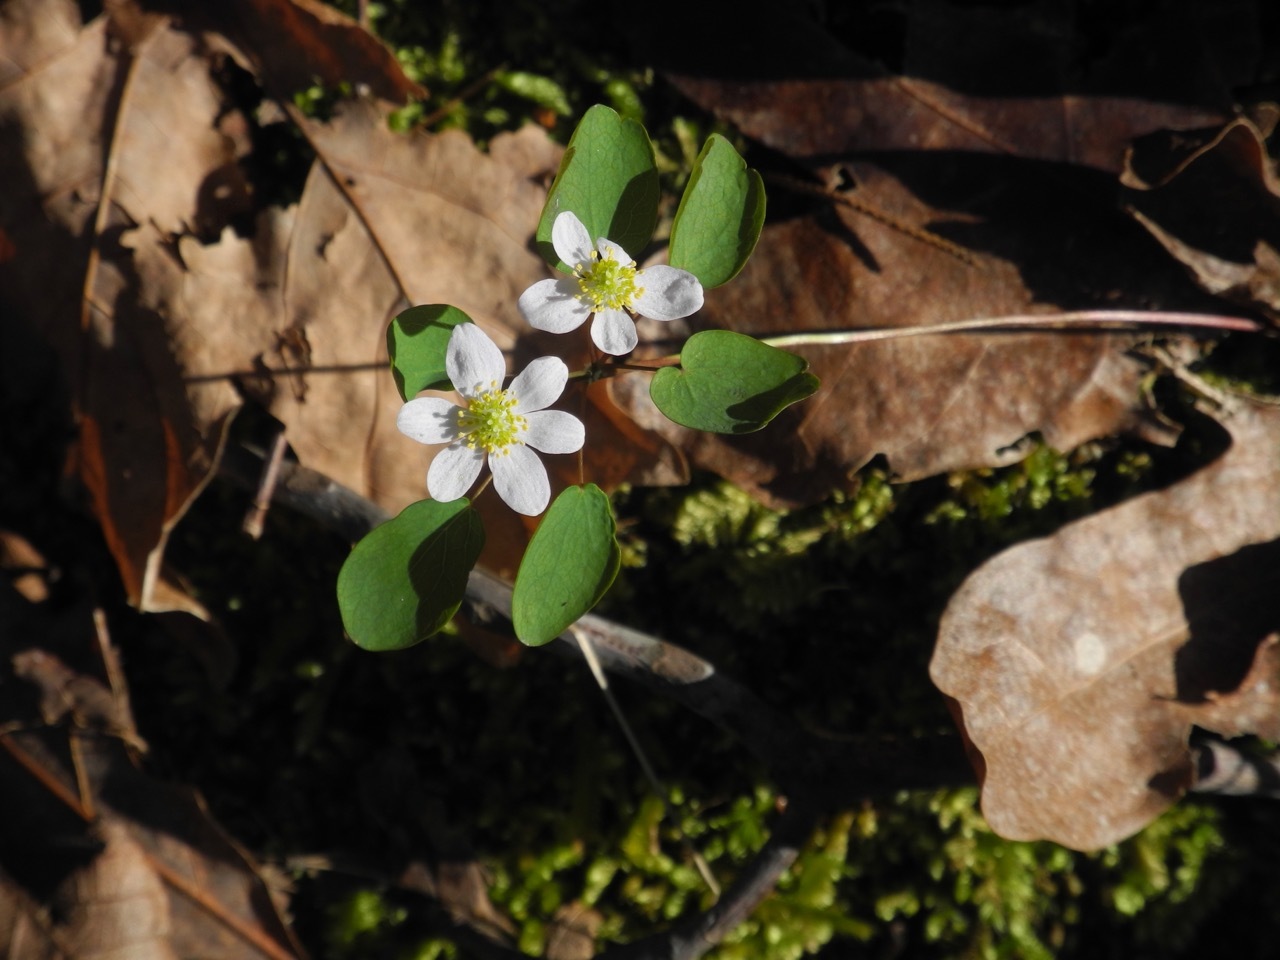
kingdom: Plantae
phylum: Tracheophyta
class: Magnoliopsida
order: Ranunculales
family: Ranunculaceae
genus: Thalictrum
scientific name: Thalictrum thalictroides
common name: Rue-anemone
